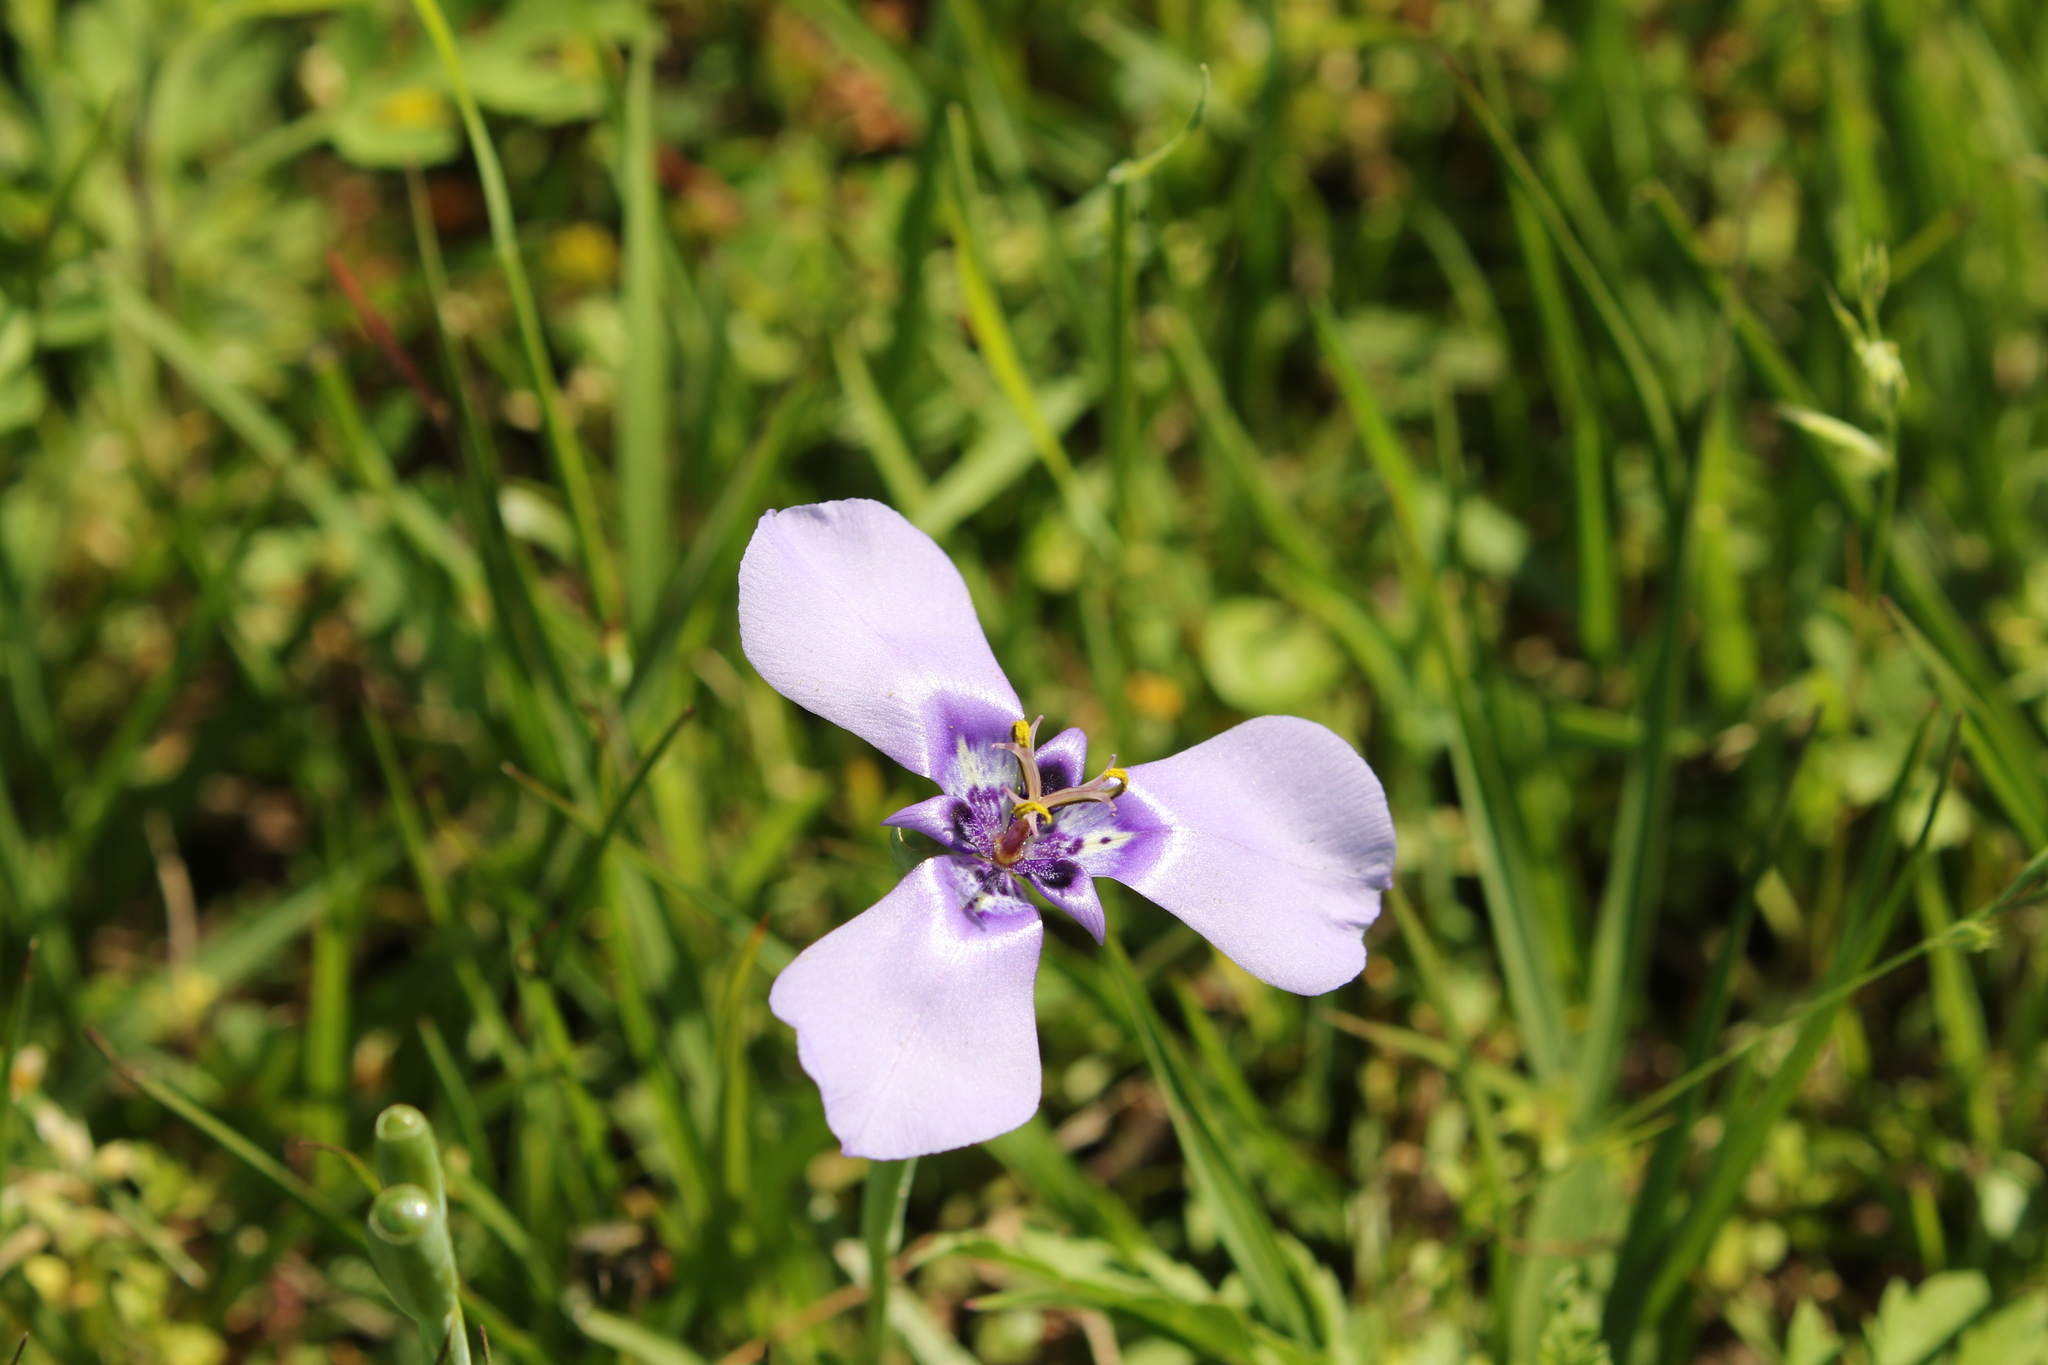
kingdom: Plantae
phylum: Tracheophyta
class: Liliopsida
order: Asparagales
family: Iridaceae
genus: Herbertia
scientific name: Herbertia lahue
